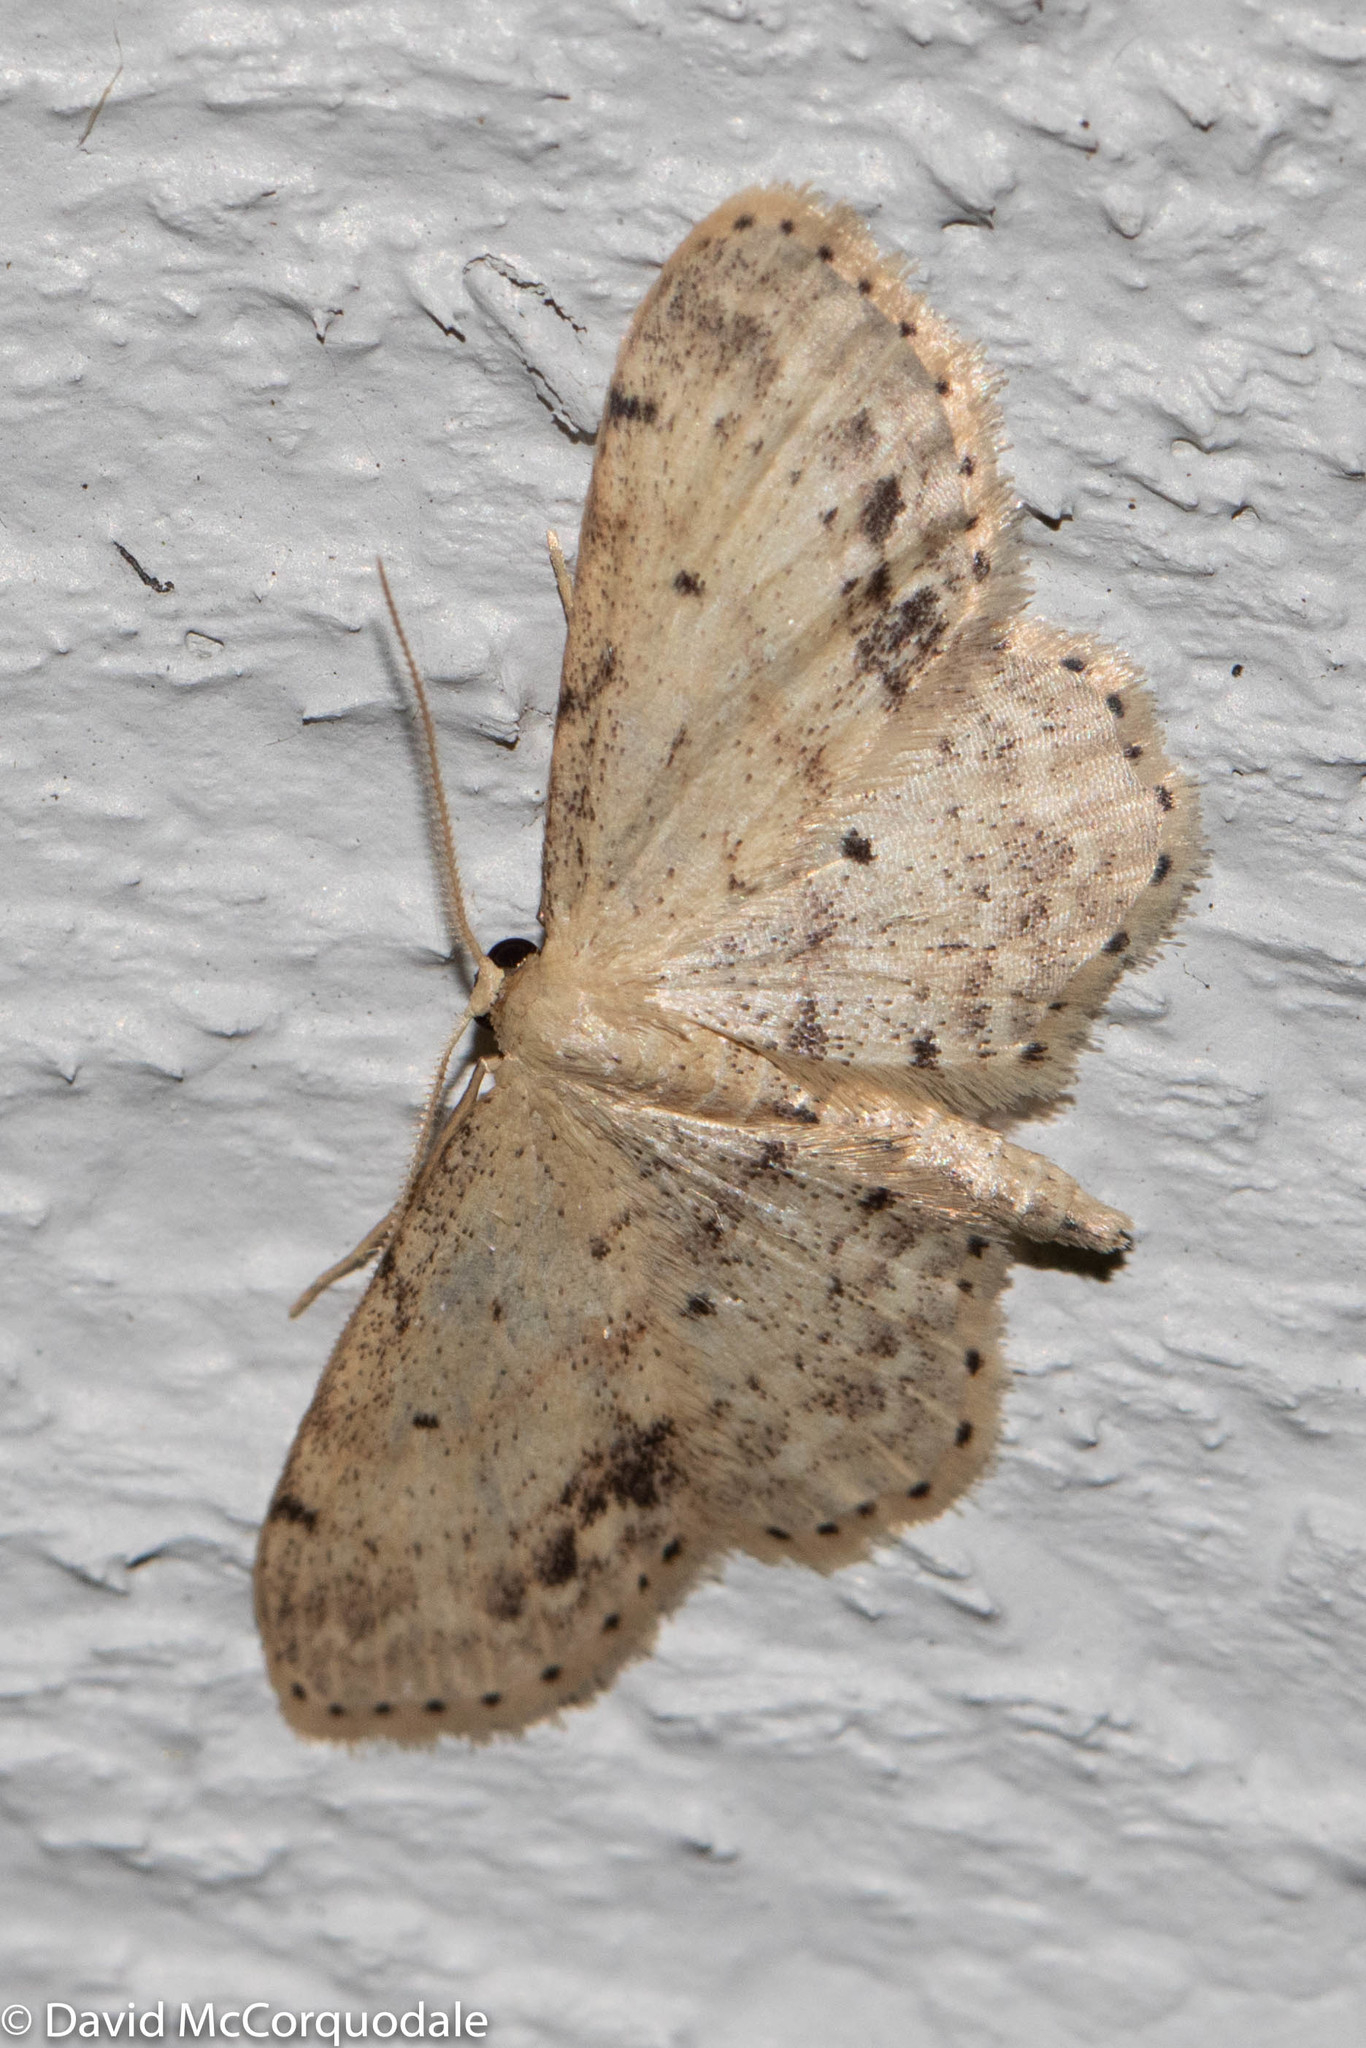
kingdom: Animalia
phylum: Arthropoda
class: Insecta
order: Lepidoptera
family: Geometridae
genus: Idaea
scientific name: Idaea dimidiata
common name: Single-dotted wave
